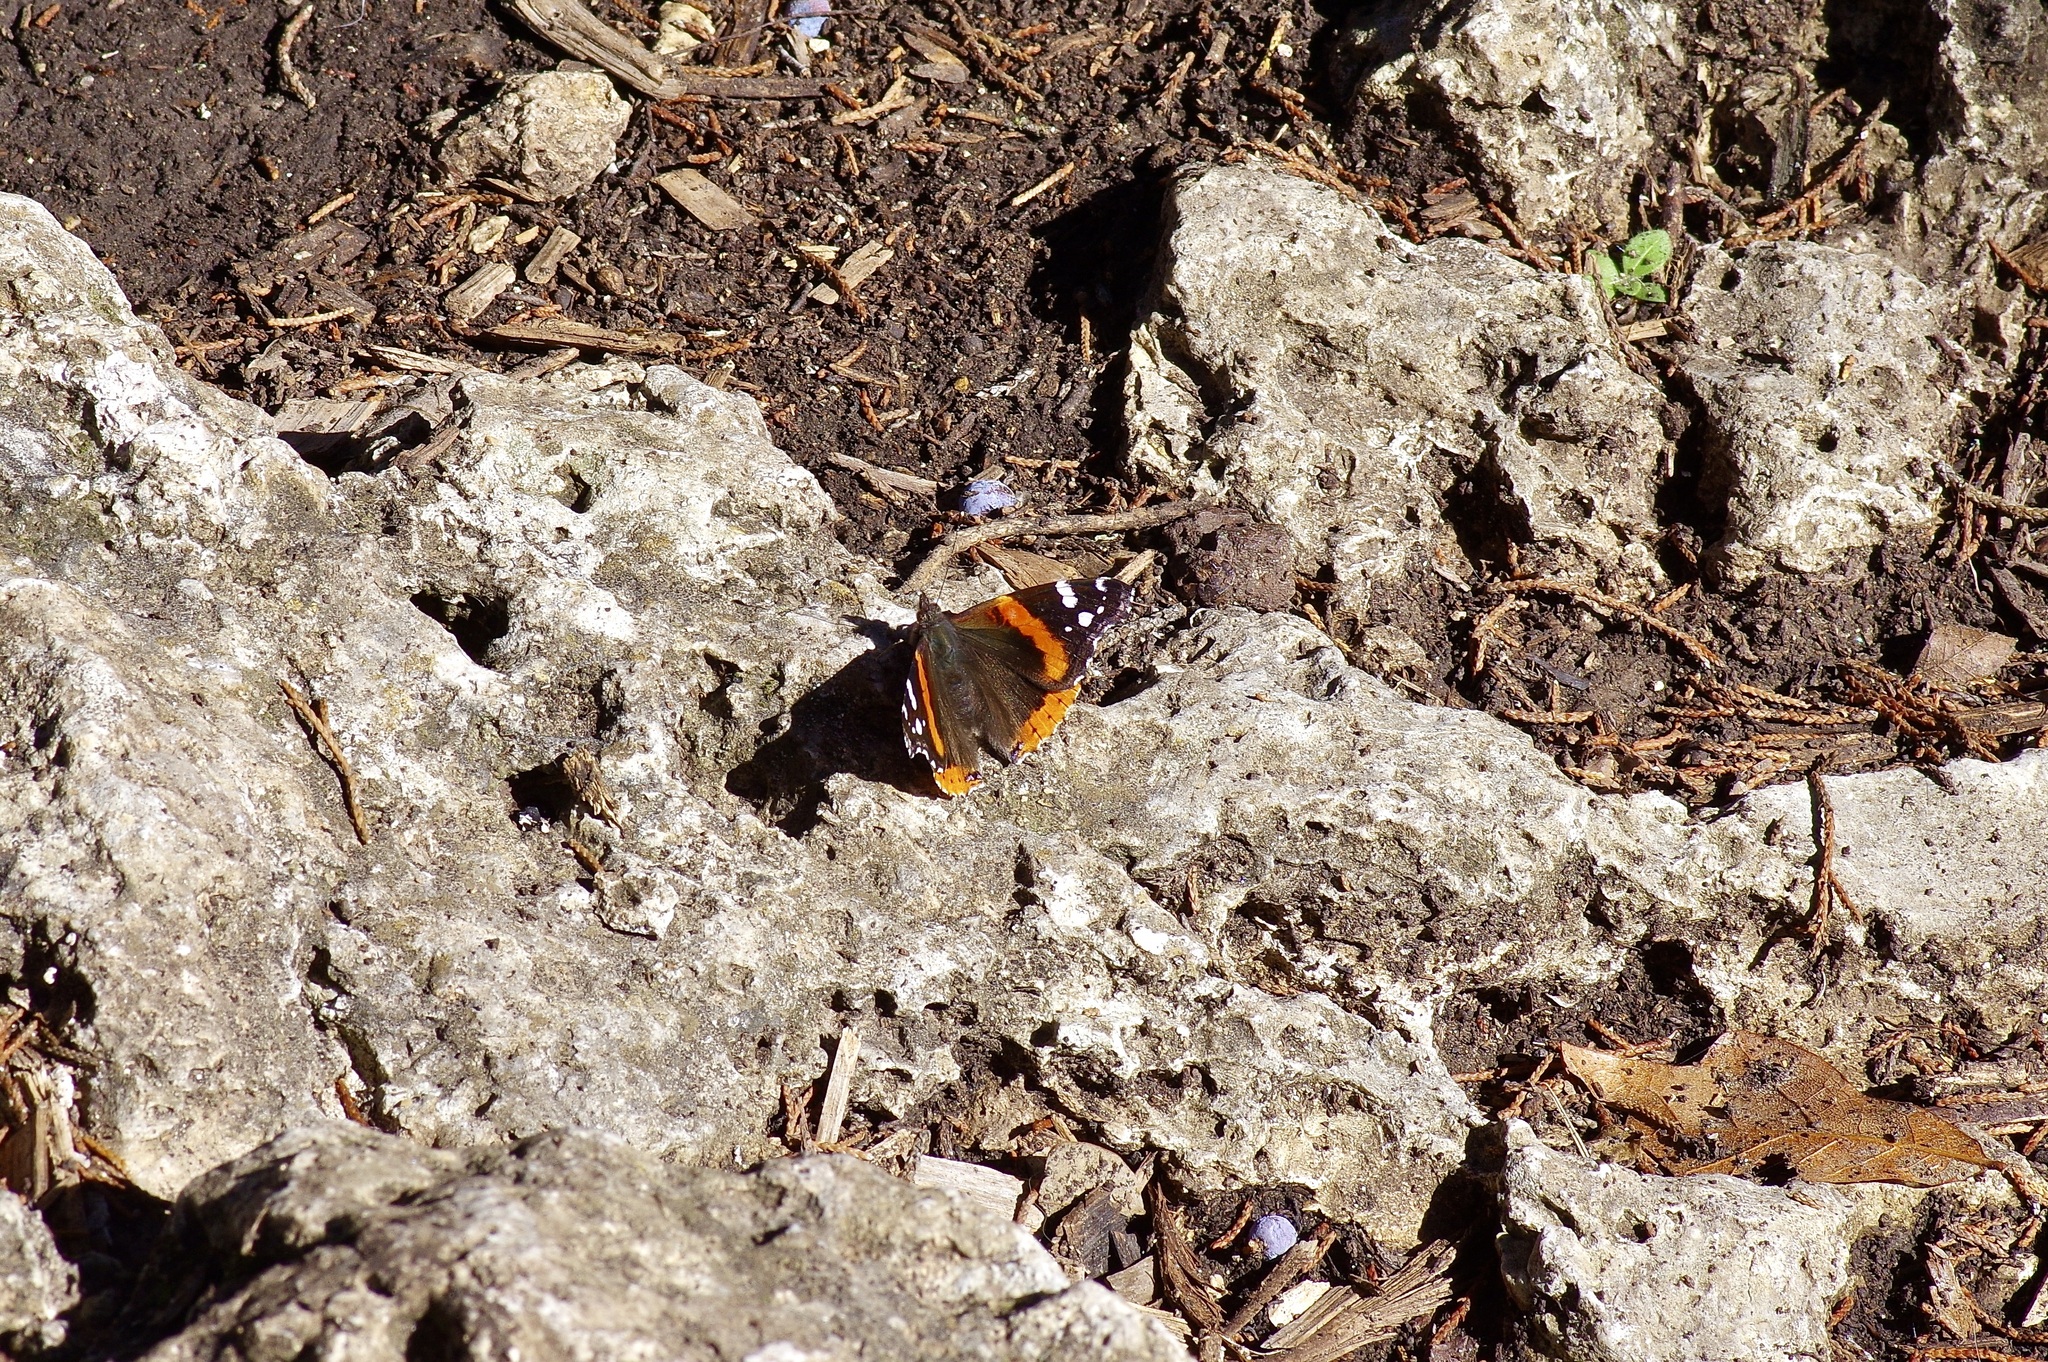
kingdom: Animalia
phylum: Arthropoda
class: Insecta
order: Lepidoptera
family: Nymphalidae
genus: Vanessa
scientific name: Vanessa atalanta
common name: Red admiral
